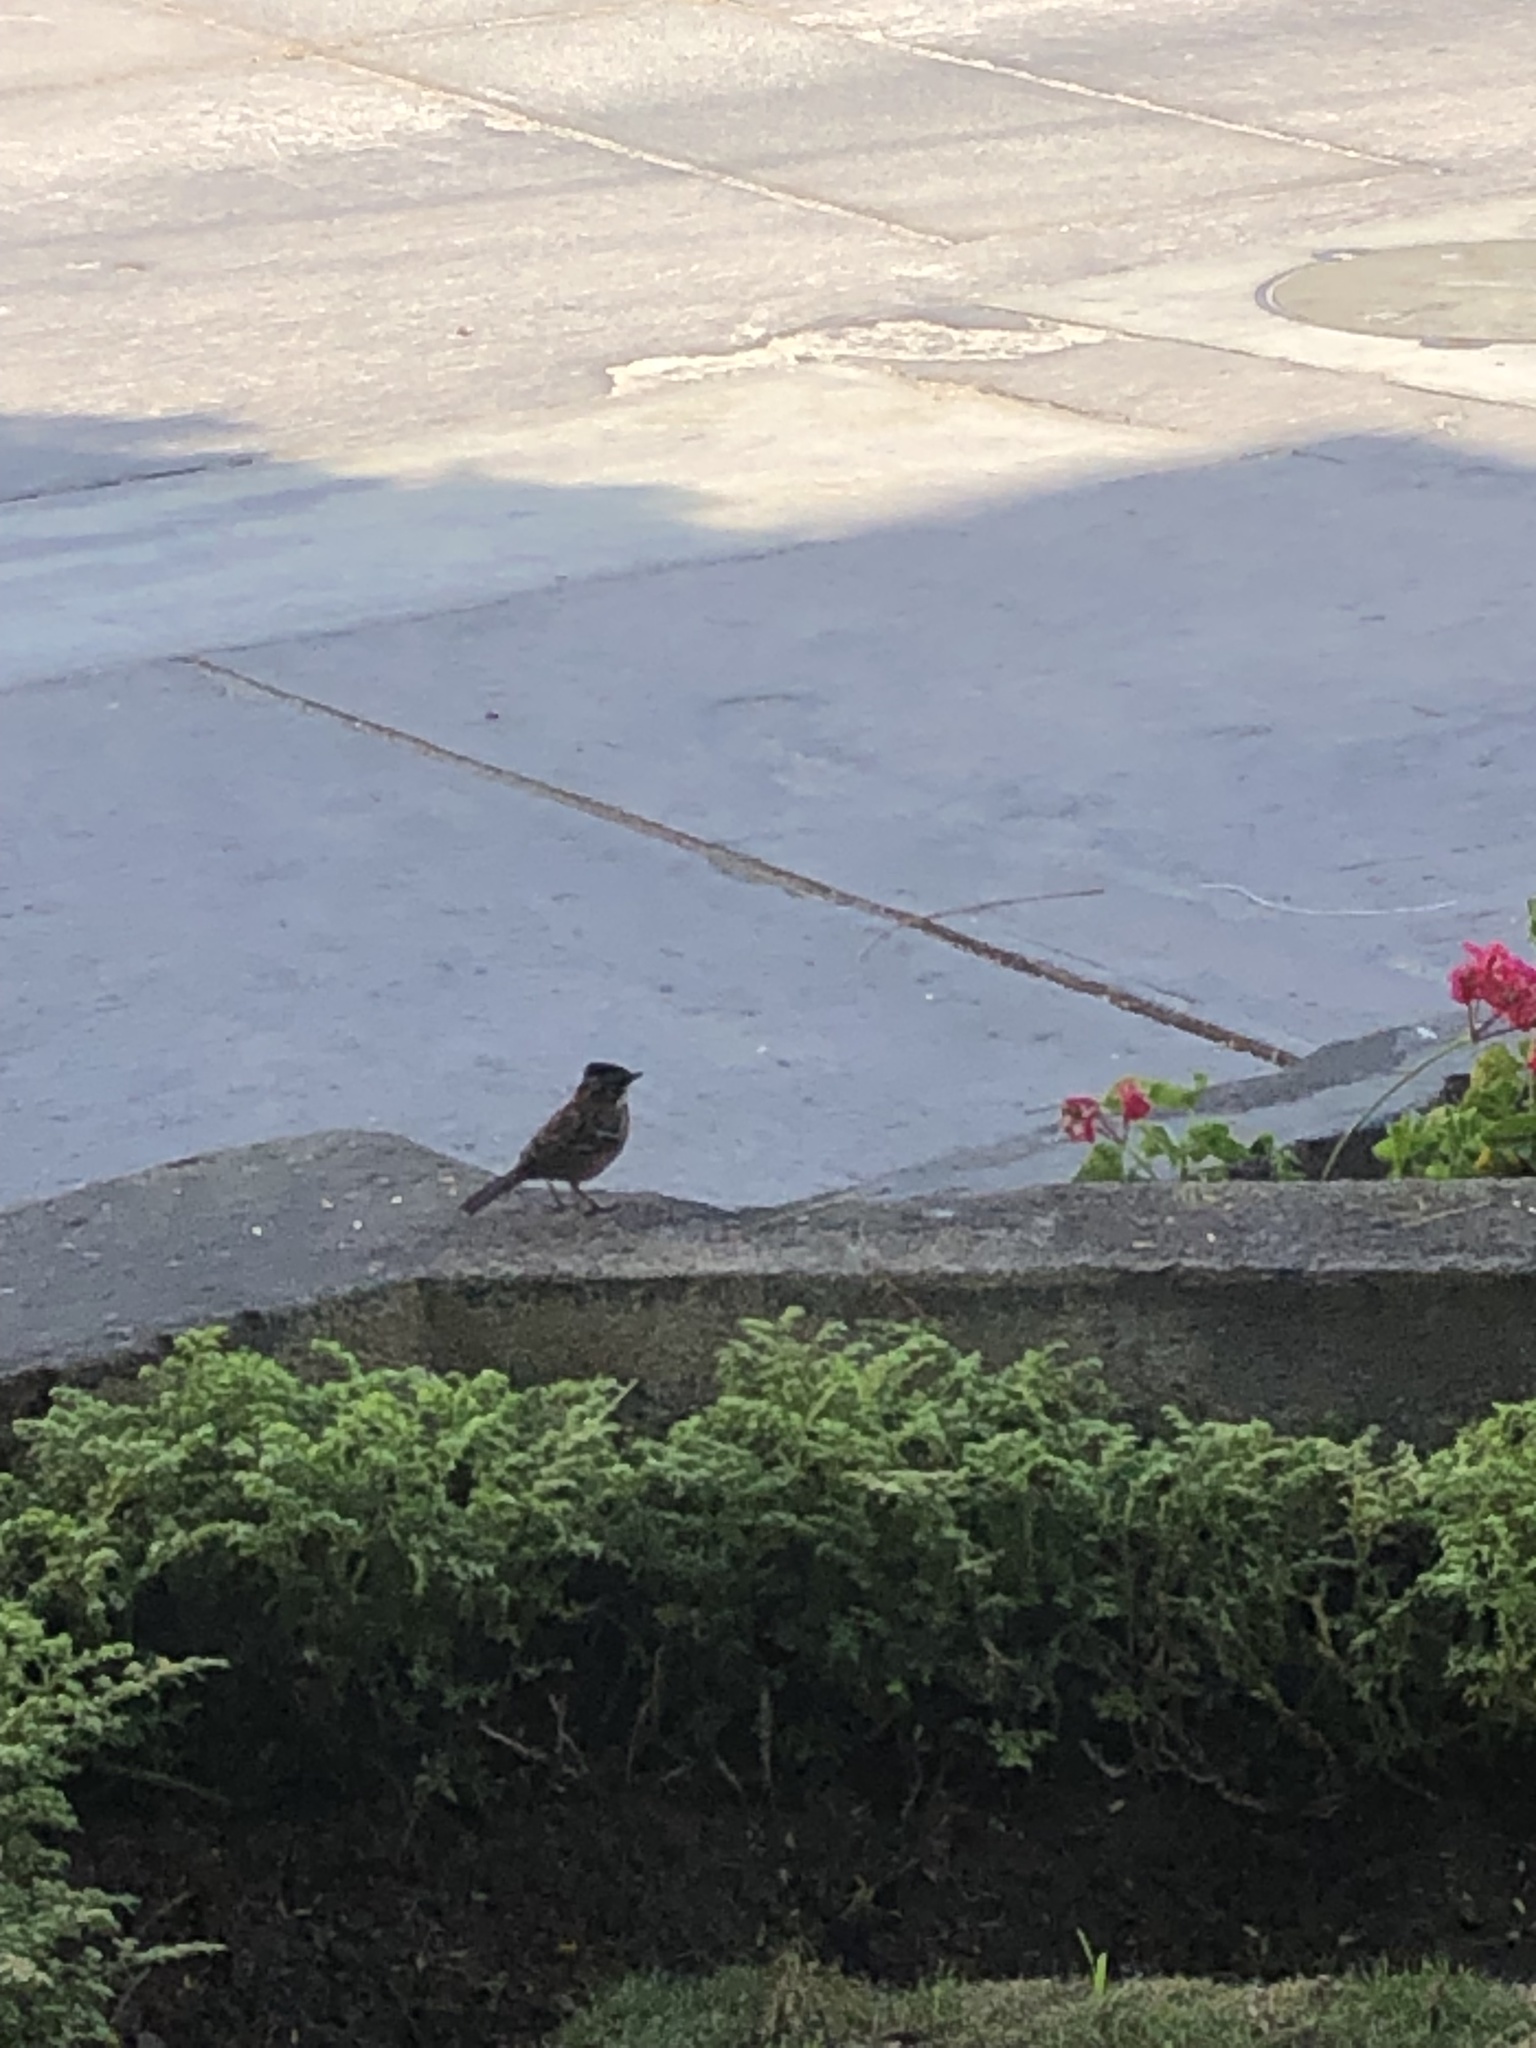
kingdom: Animalia
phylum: Chordata
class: Aves
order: Passeriformes
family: Passerellidae
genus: Zonotrichia
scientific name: Zonotrichia capensis
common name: Rufous-collared sparrow
